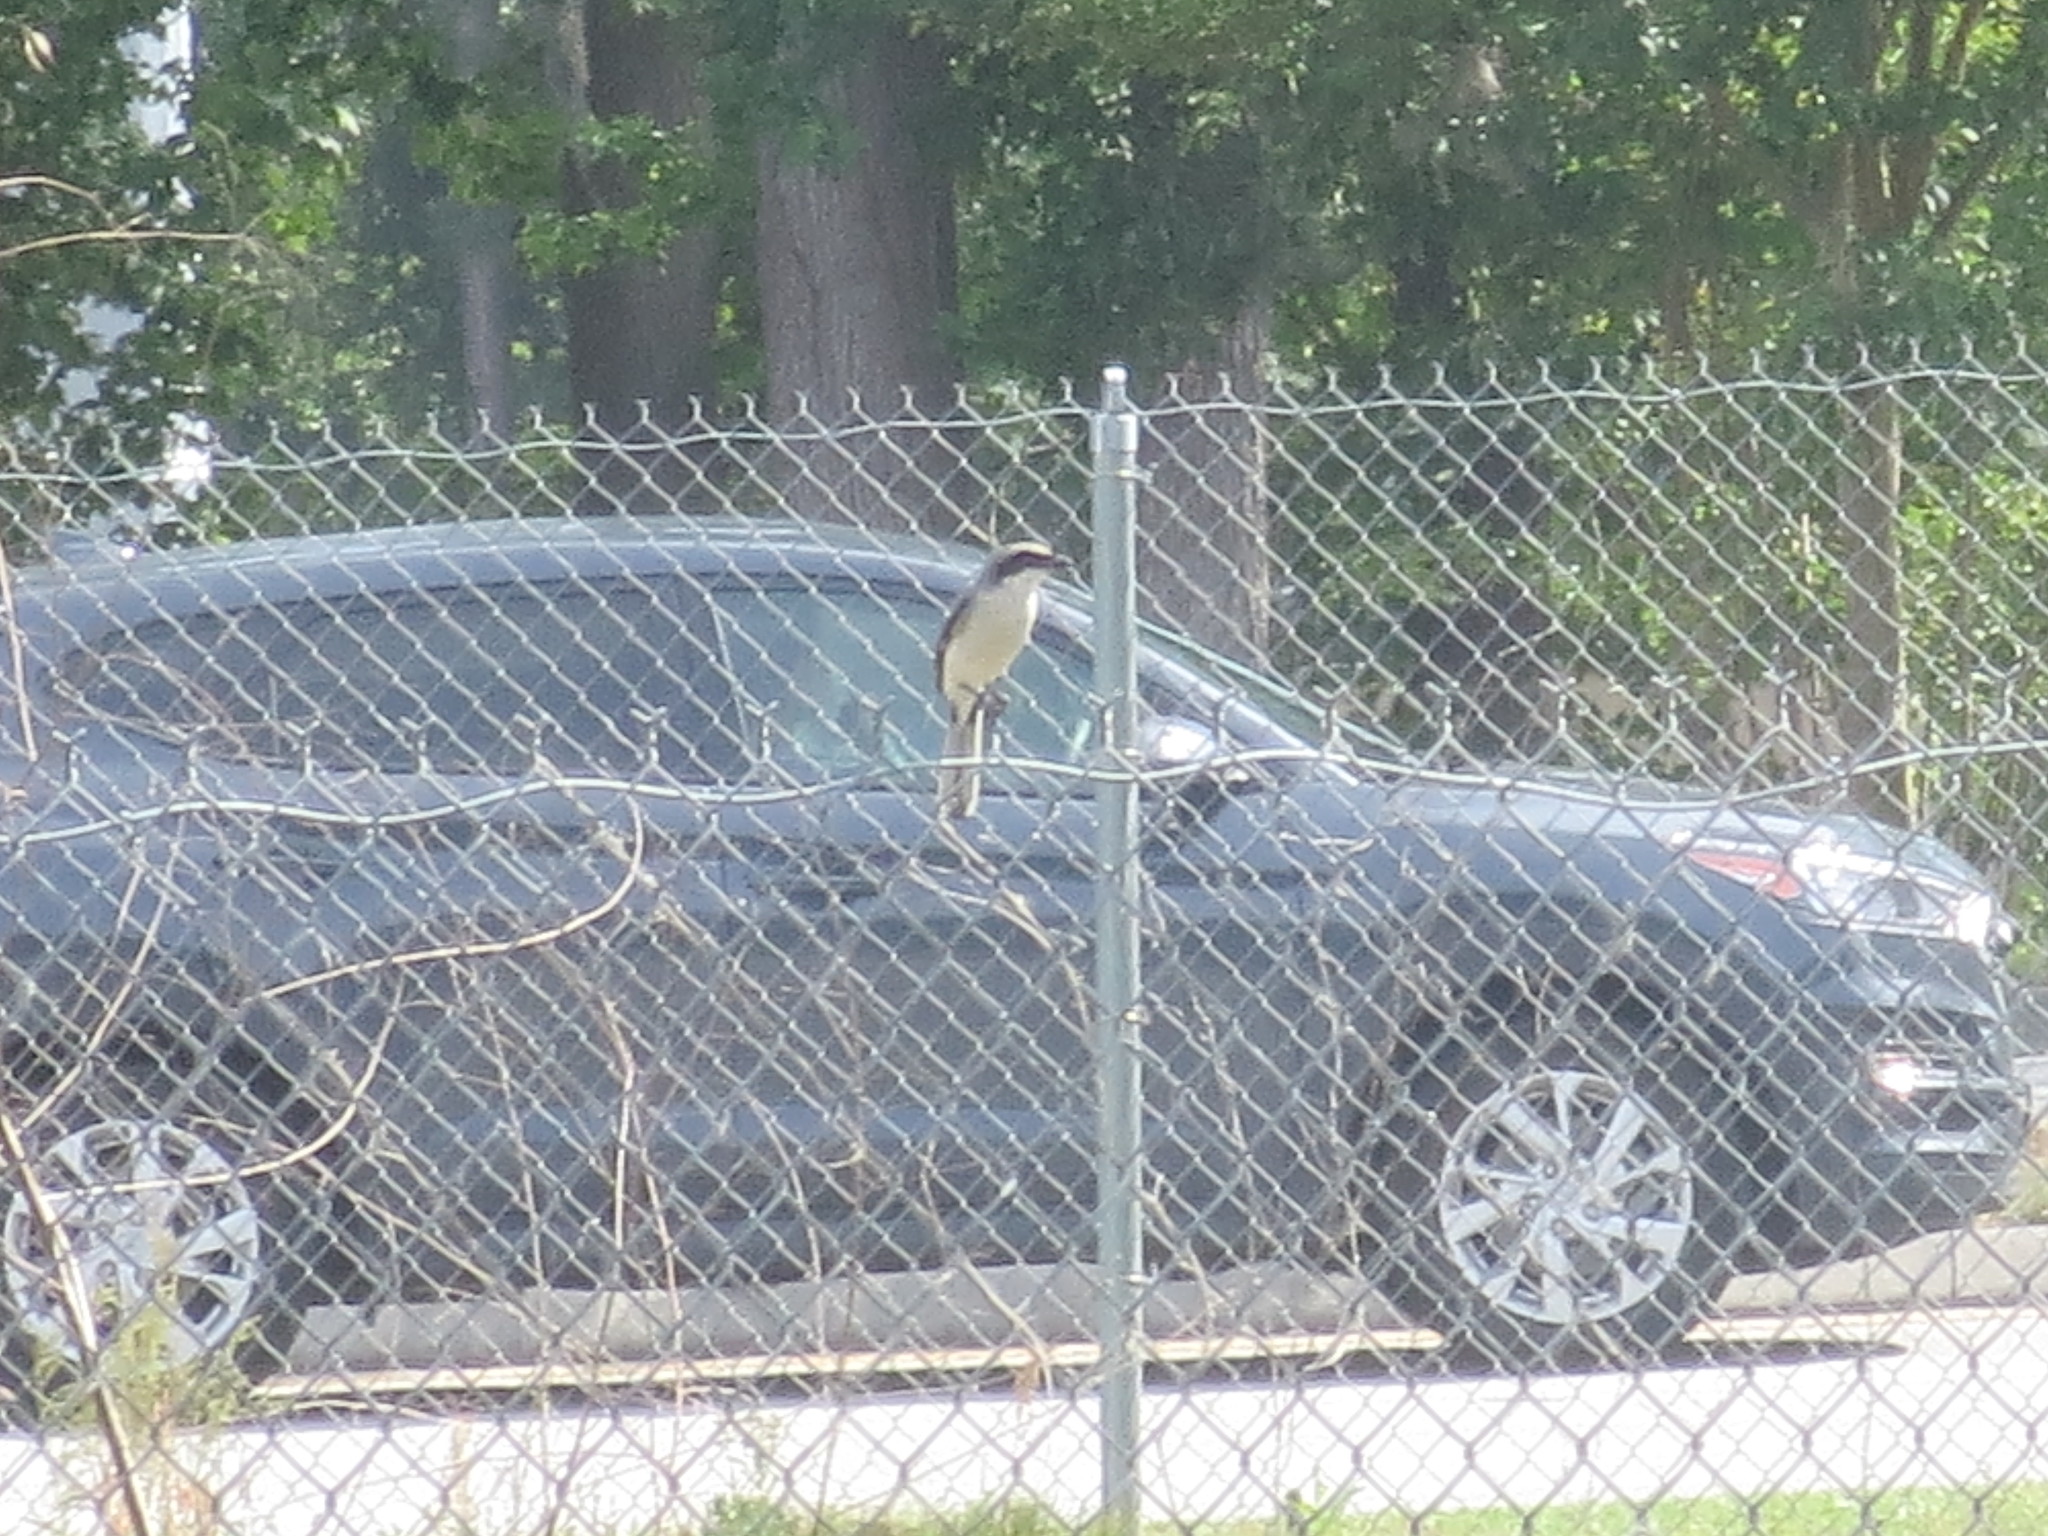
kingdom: Animalia
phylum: Chordata
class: Aves
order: Passeriformes
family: Laniidae
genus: Lanius
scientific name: Lanius ludovicianus
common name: Loggerhead shrike
